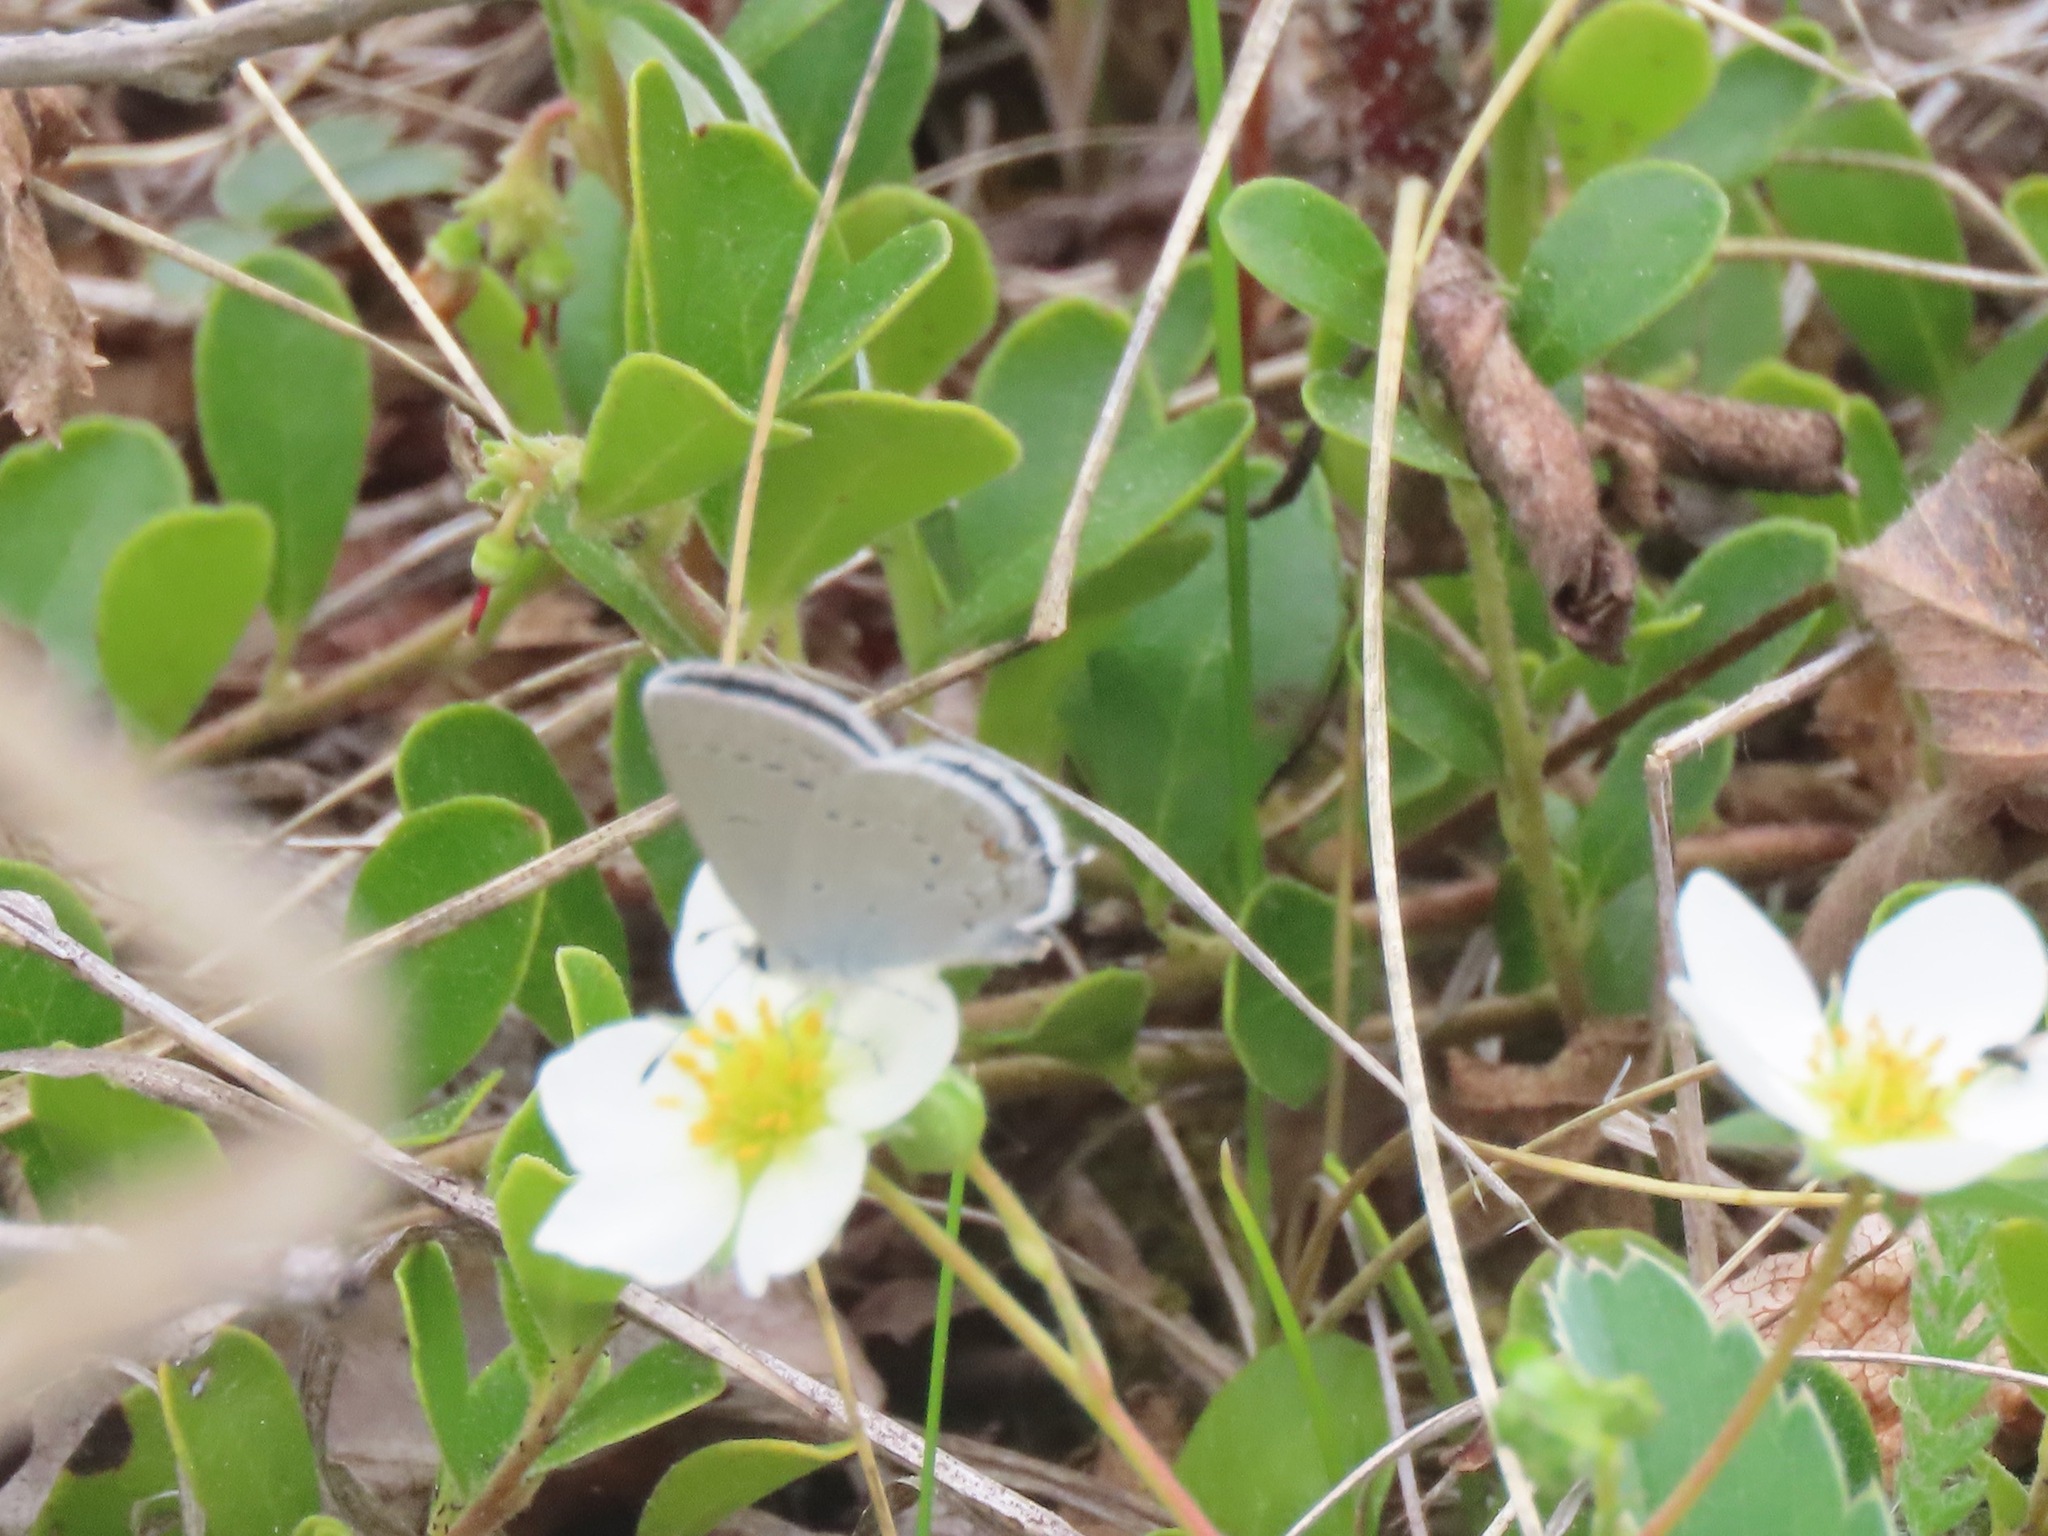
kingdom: Animalia
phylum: Arthropoda
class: Insecta
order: Lepidoptera
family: Lycaenidae
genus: Elkalyce
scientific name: Elkalyce amyntula
